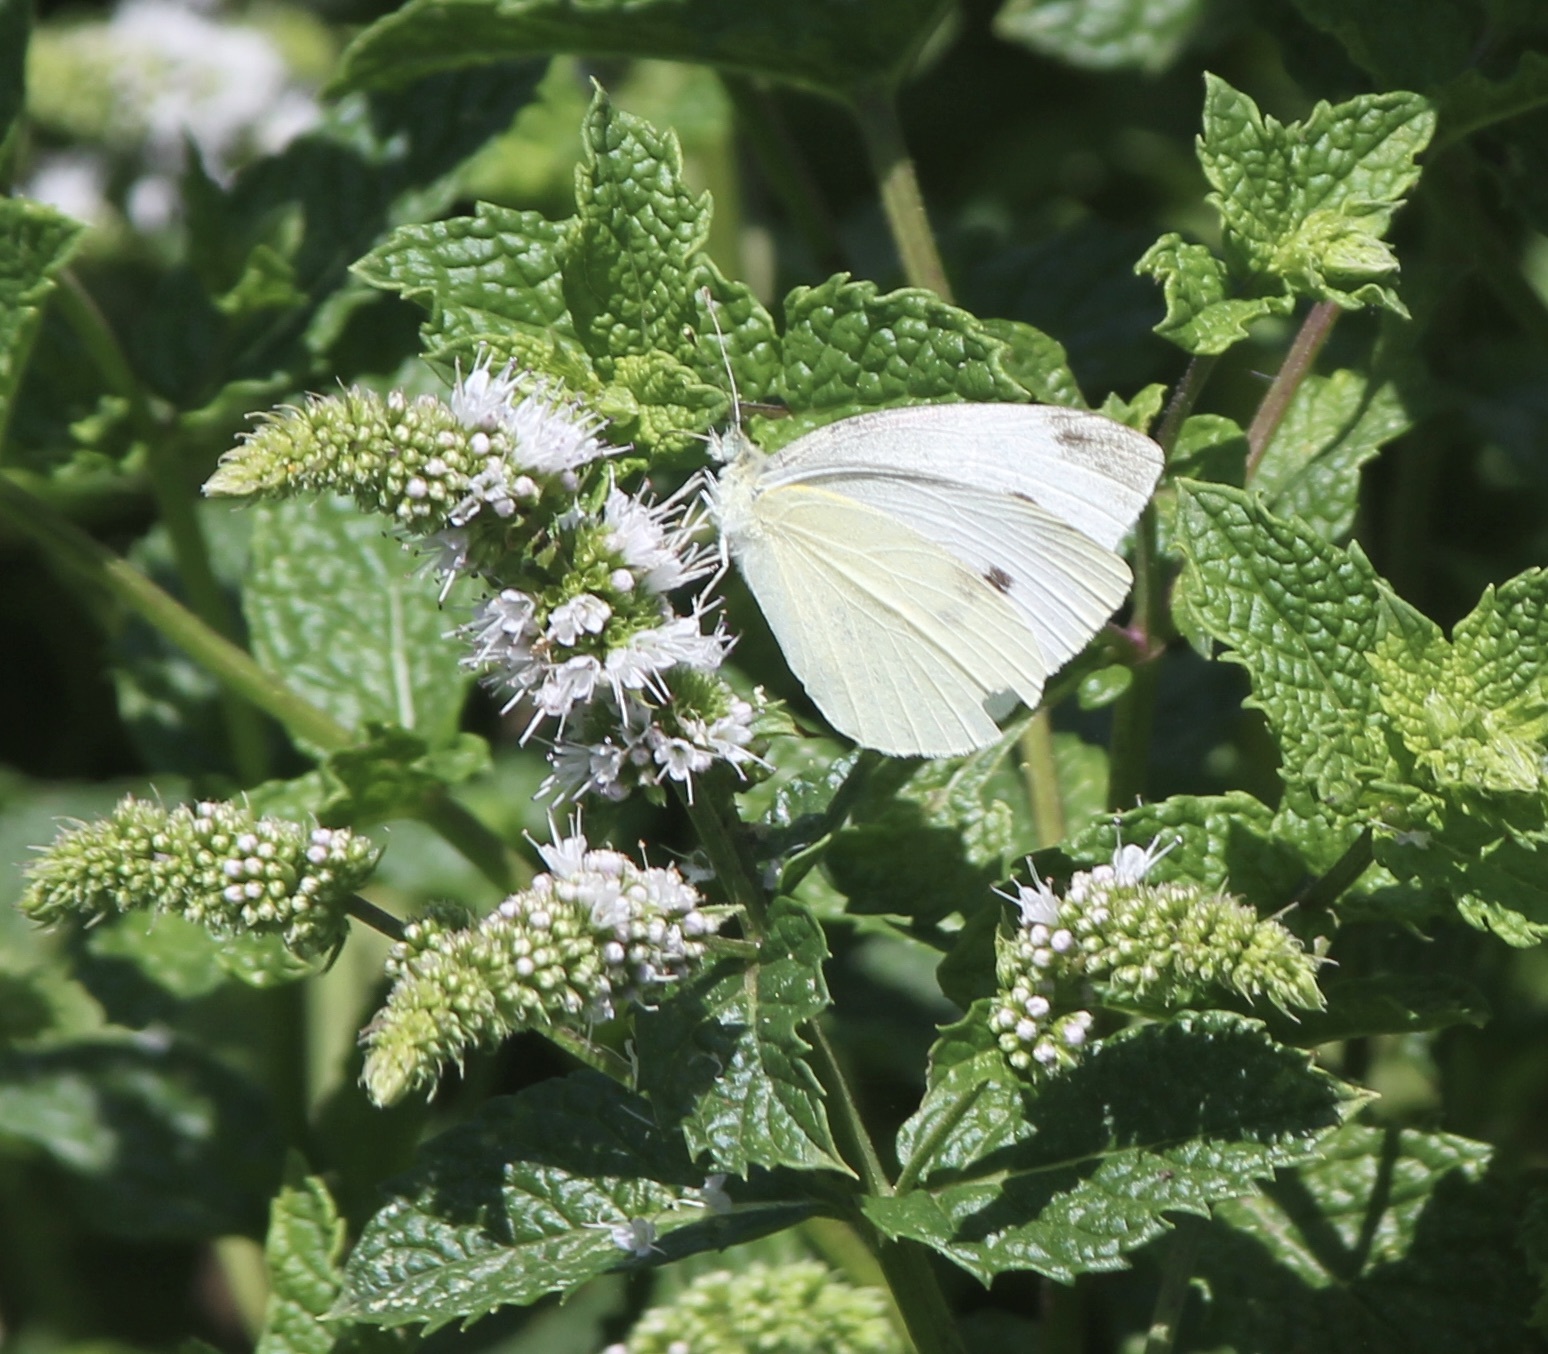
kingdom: Animalia
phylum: Arthropoda
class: Insecta
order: Lepidoptera
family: Pieridae
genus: Pieris
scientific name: Pieris rapae
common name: Small white
